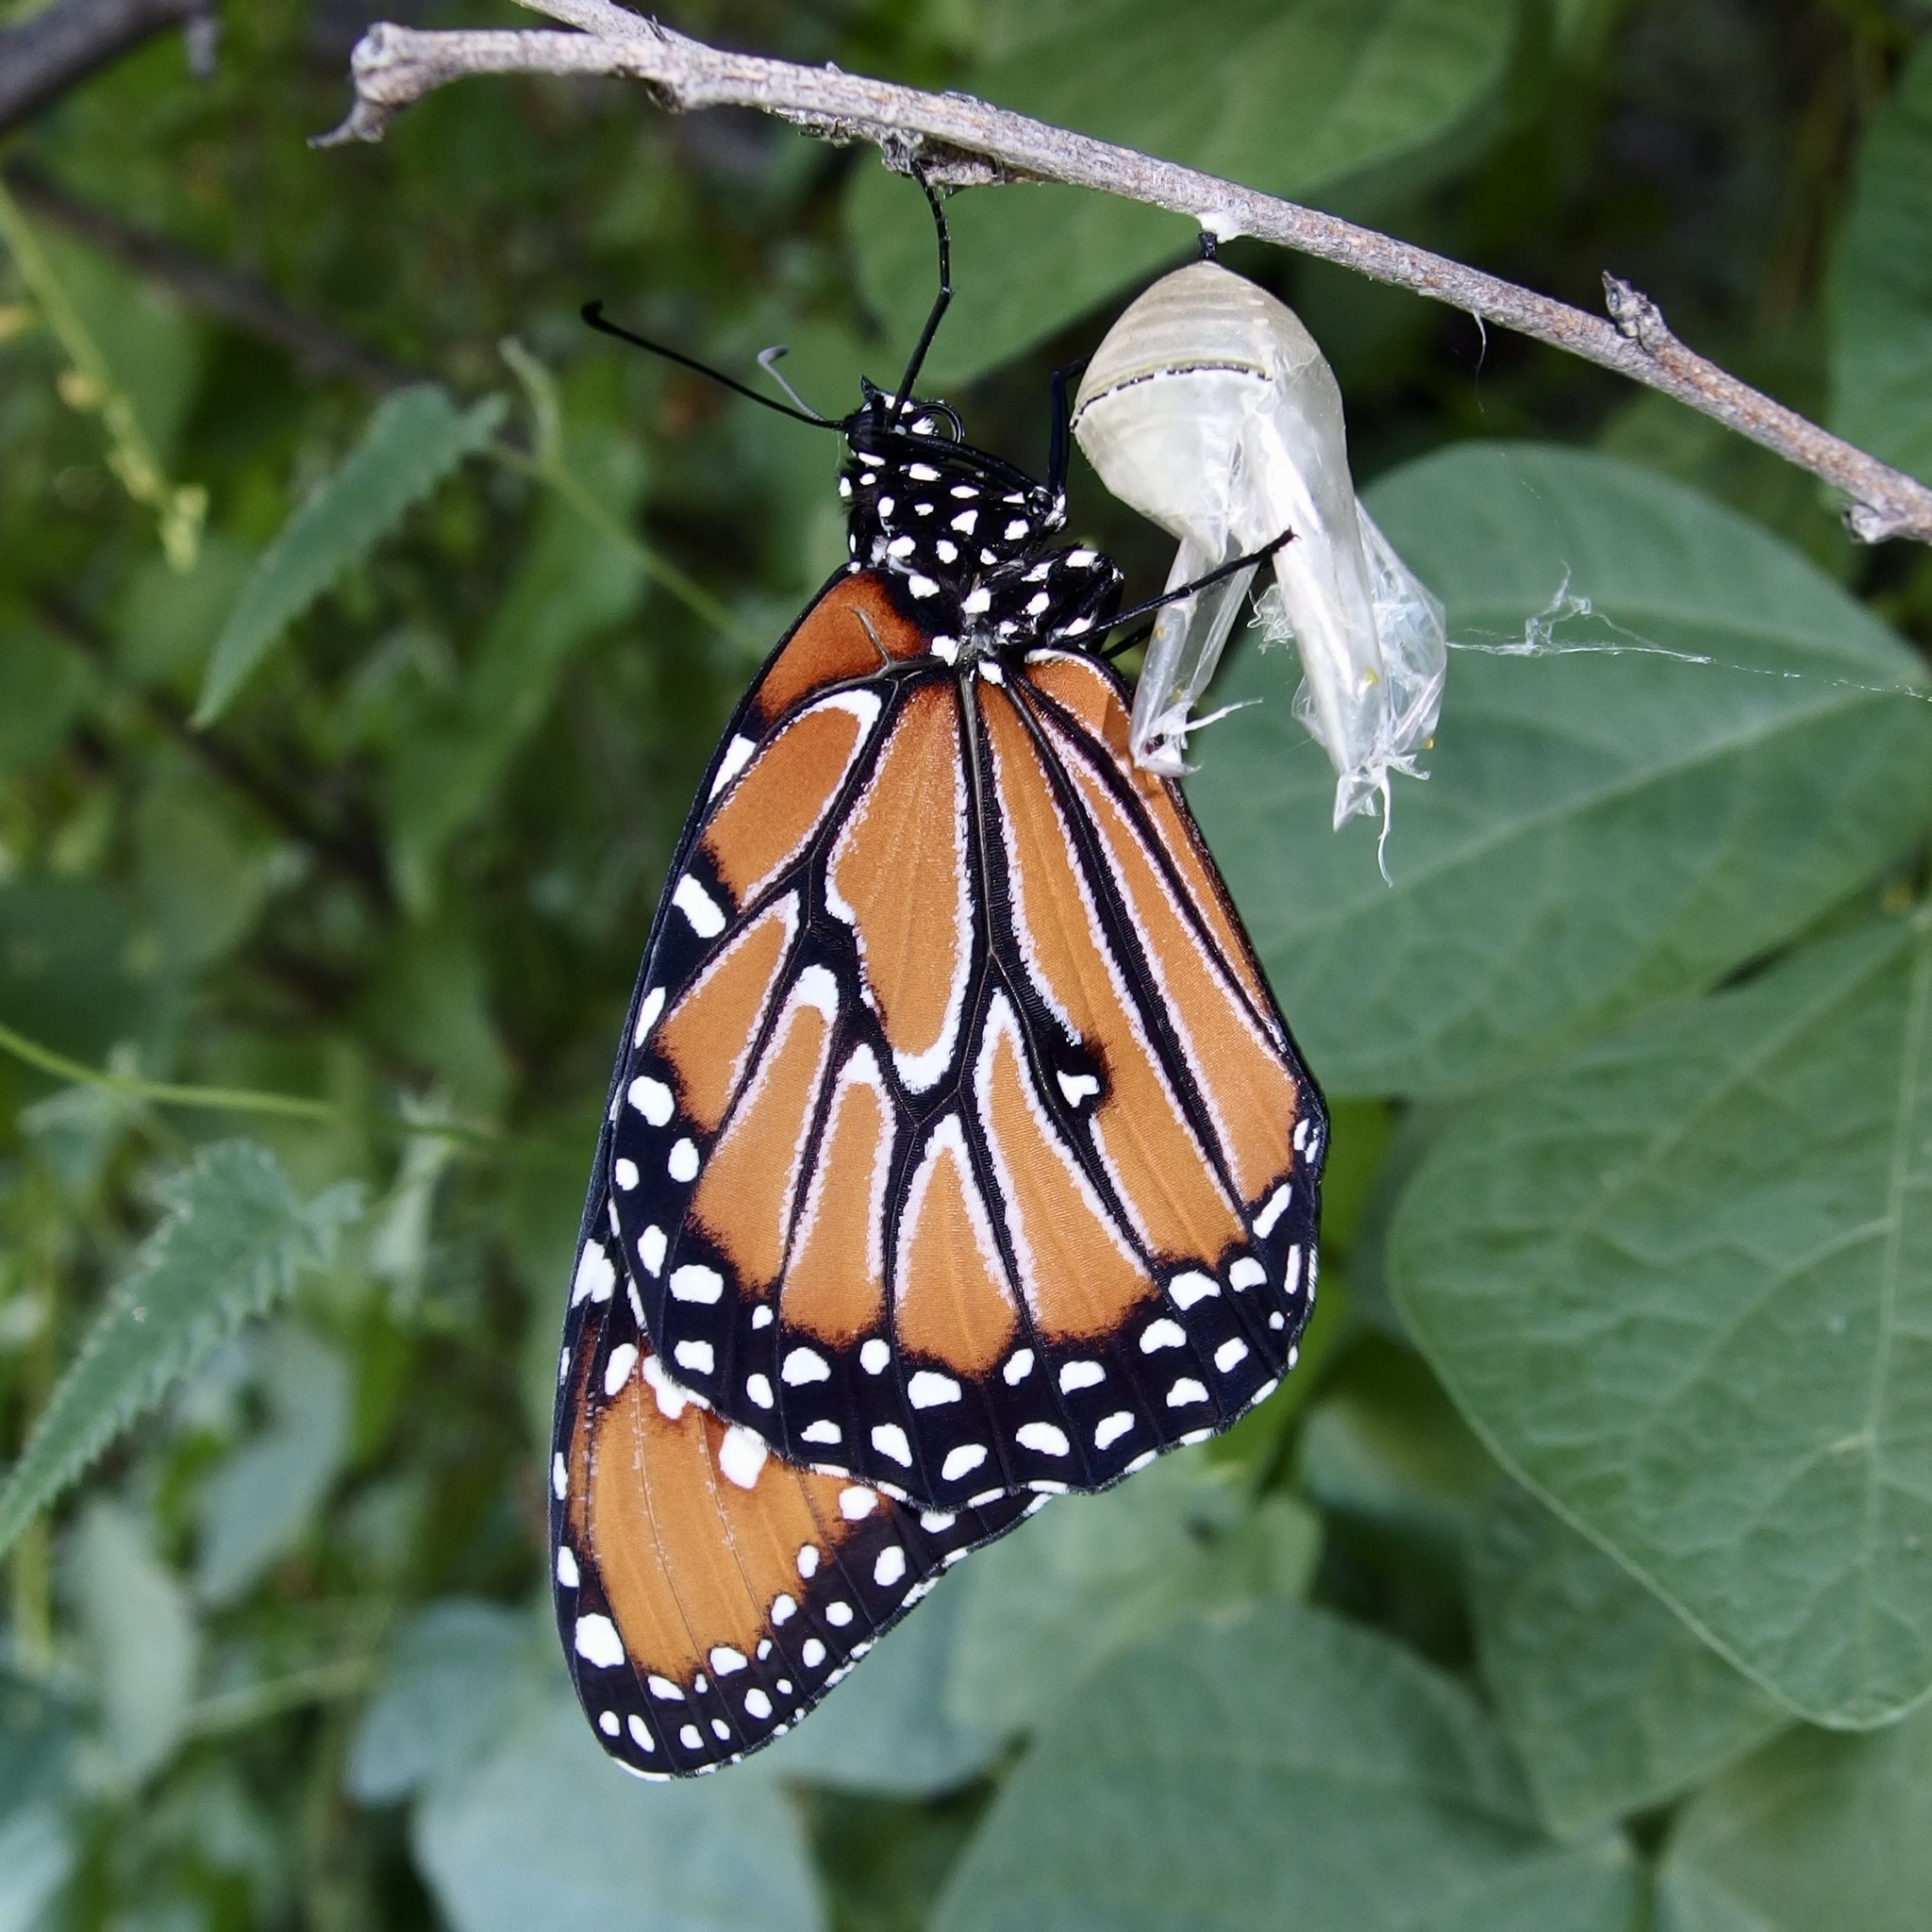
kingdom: Animalia
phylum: Arthropoda
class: Insecta
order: Lepidoptera
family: Nymphalidae
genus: Danaus
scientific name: Danaus gilippus
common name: Queen
